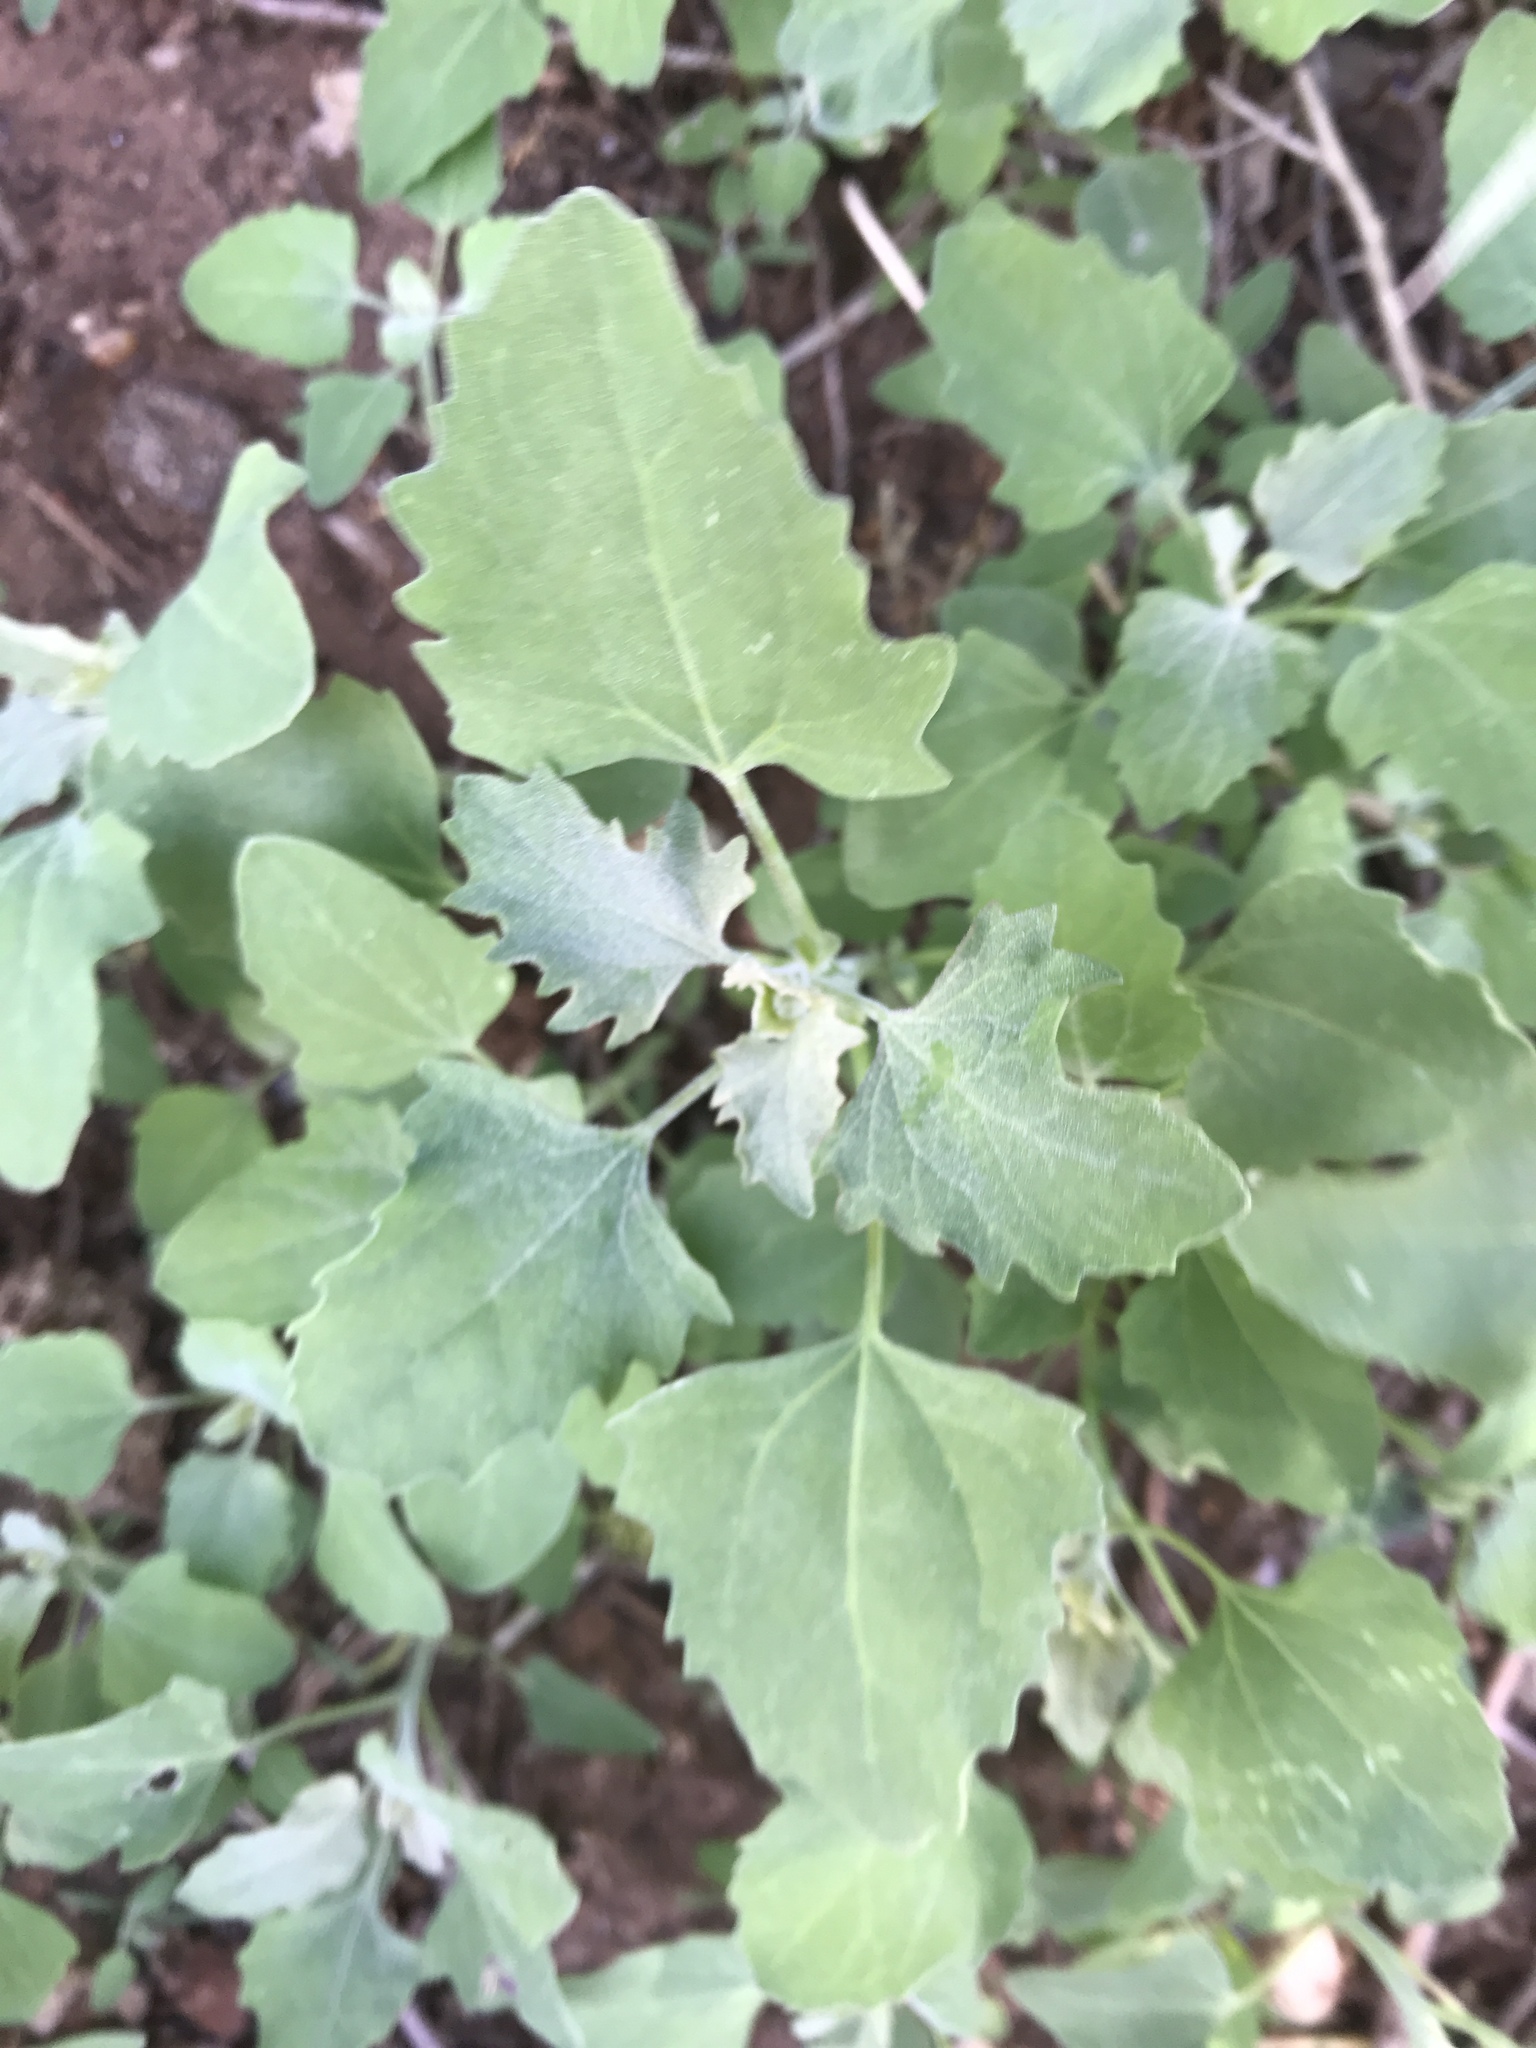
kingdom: Plantae
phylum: Tracheophyta
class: Magnoliopsida
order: Caryophyllales
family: Amaranthaceae
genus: Chenopodium
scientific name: Chenopodium album
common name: Fat-hen
